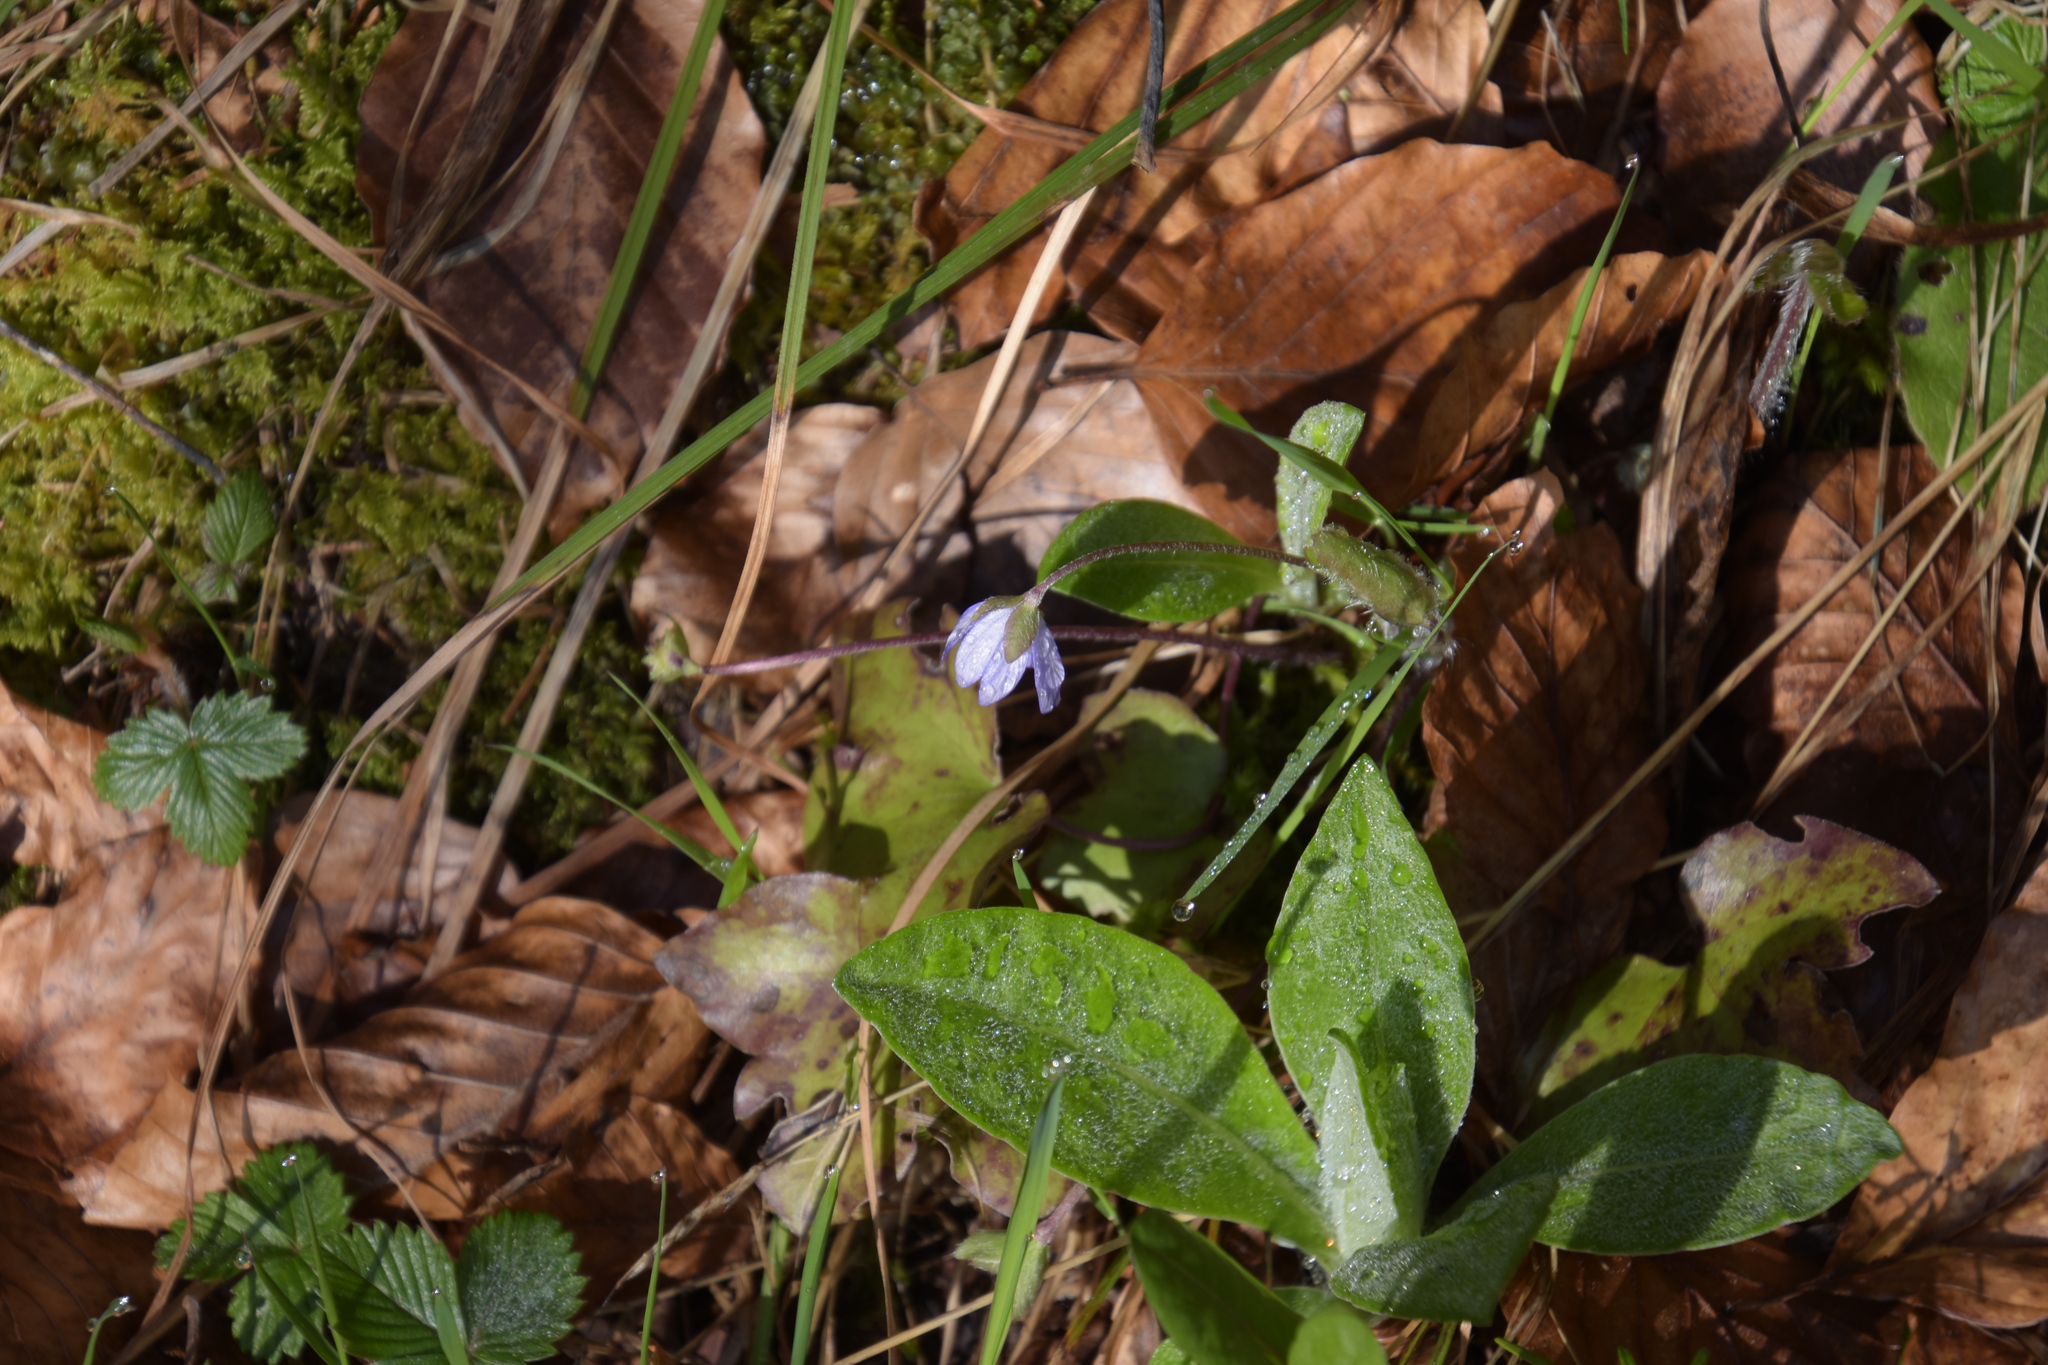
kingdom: Plantae
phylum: Tracheophyta
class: Magnoliopsida
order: Ranunculales
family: Ranunculaceae
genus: Hepatica
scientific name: Hepatica nobilis
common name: Liverleaf
